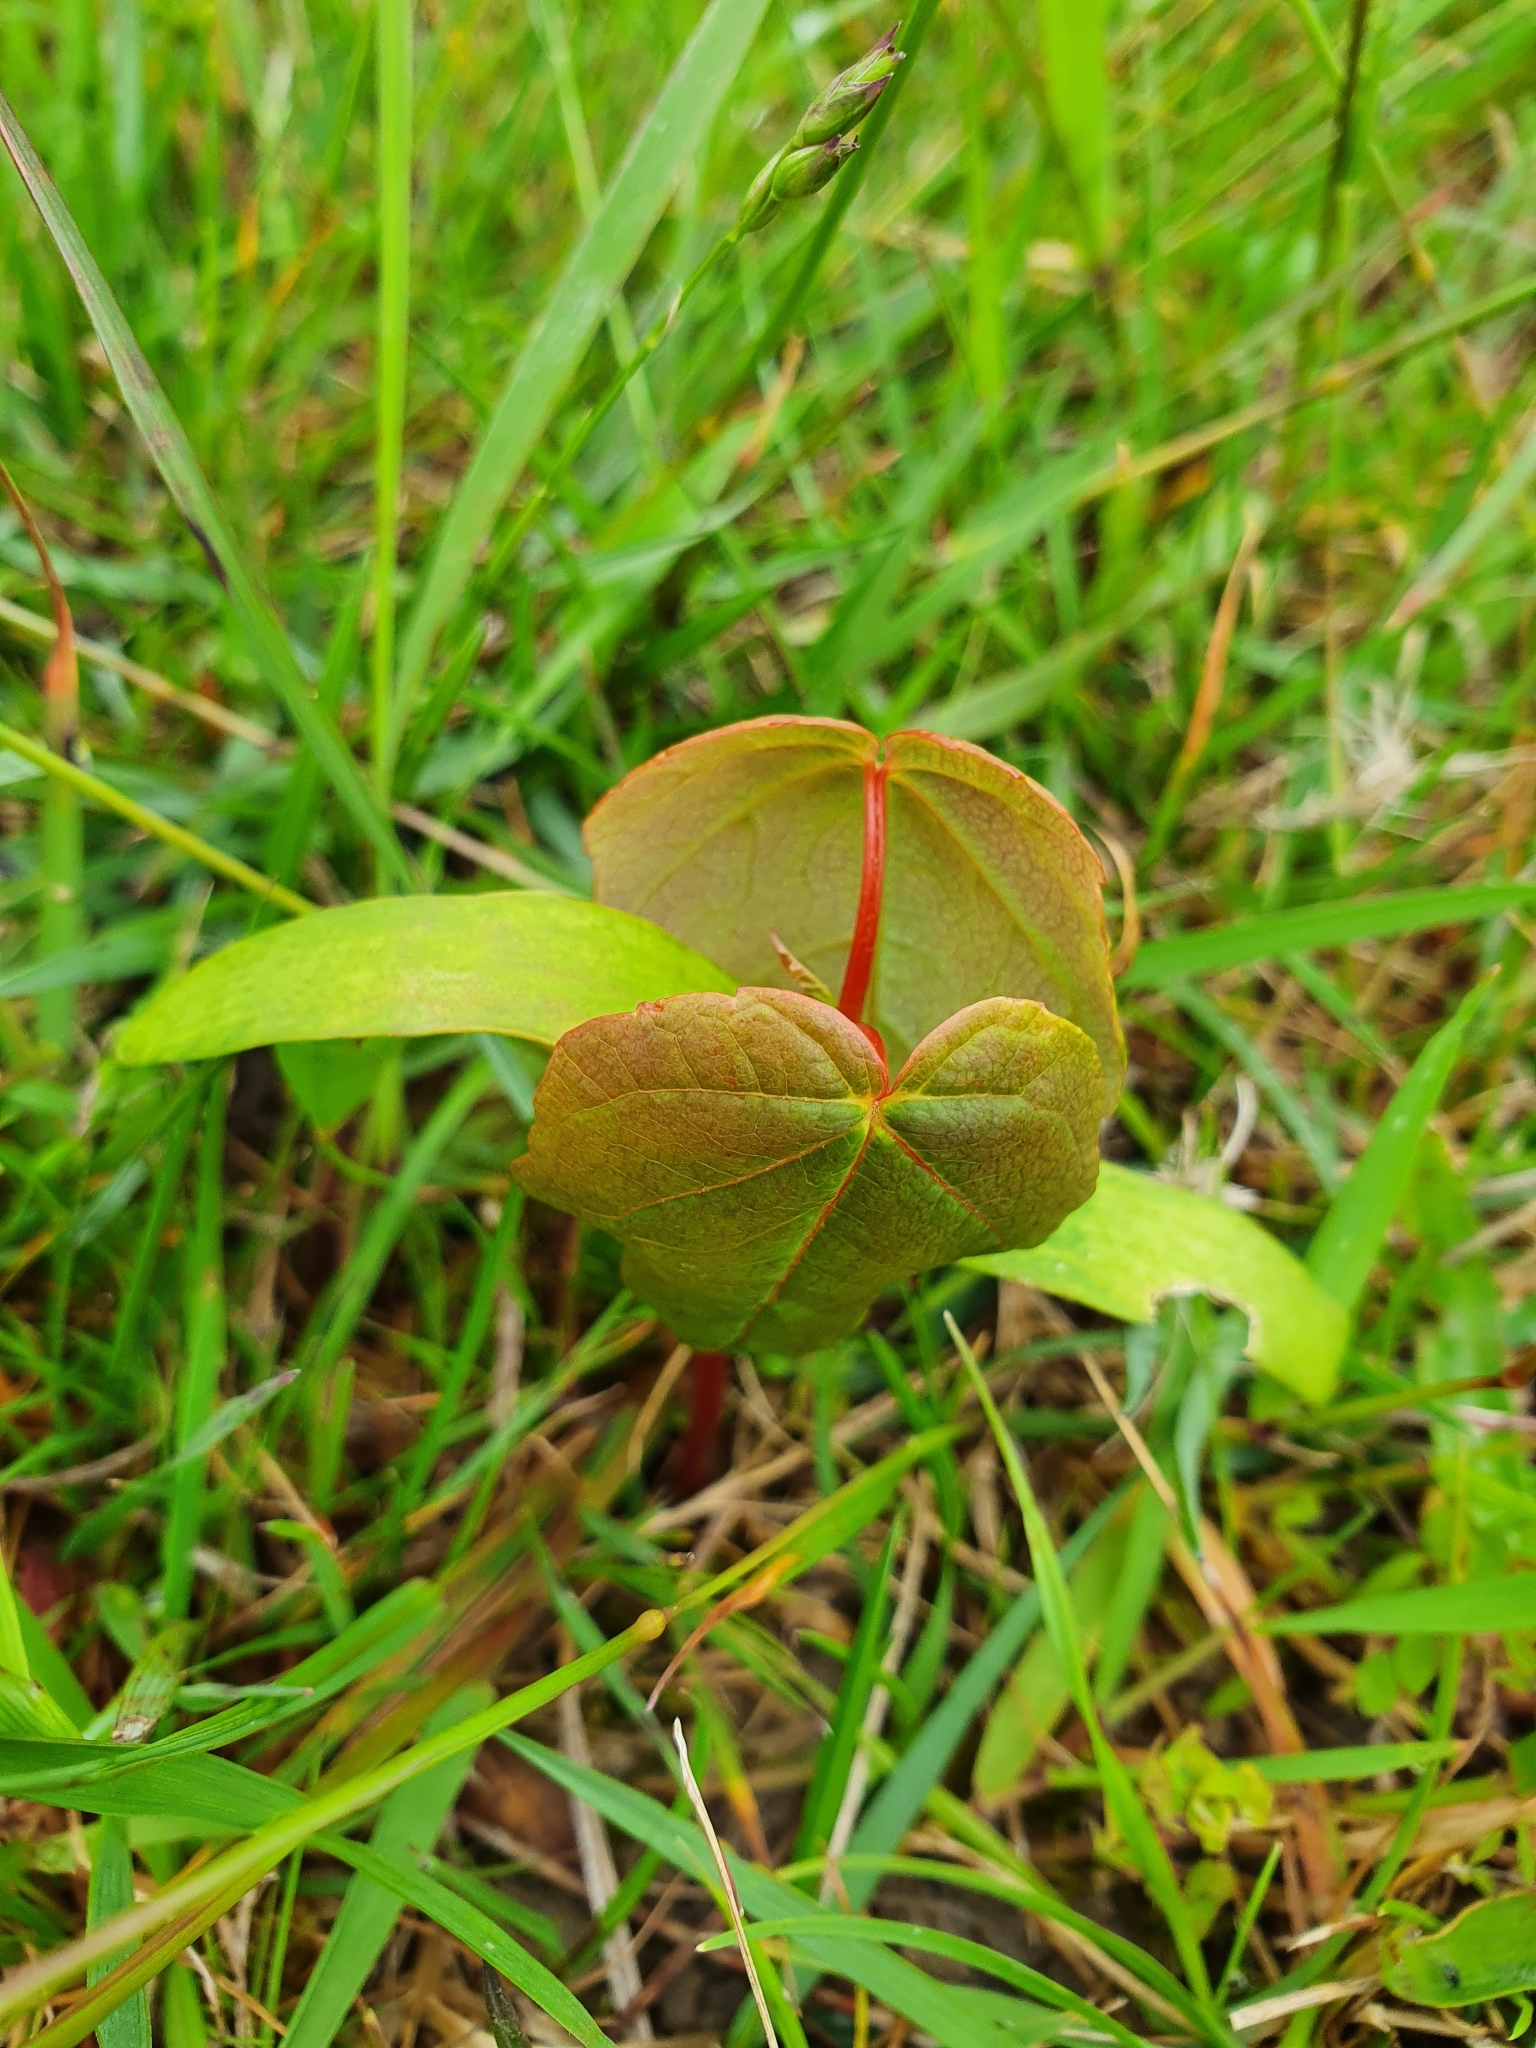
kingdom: Plantae
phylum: Tracheophyta
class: Magnoliopsida
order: Sapindales
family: Sapindaceae
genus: Acer
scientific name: Acer pseudoplatanus
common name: Sycamore
